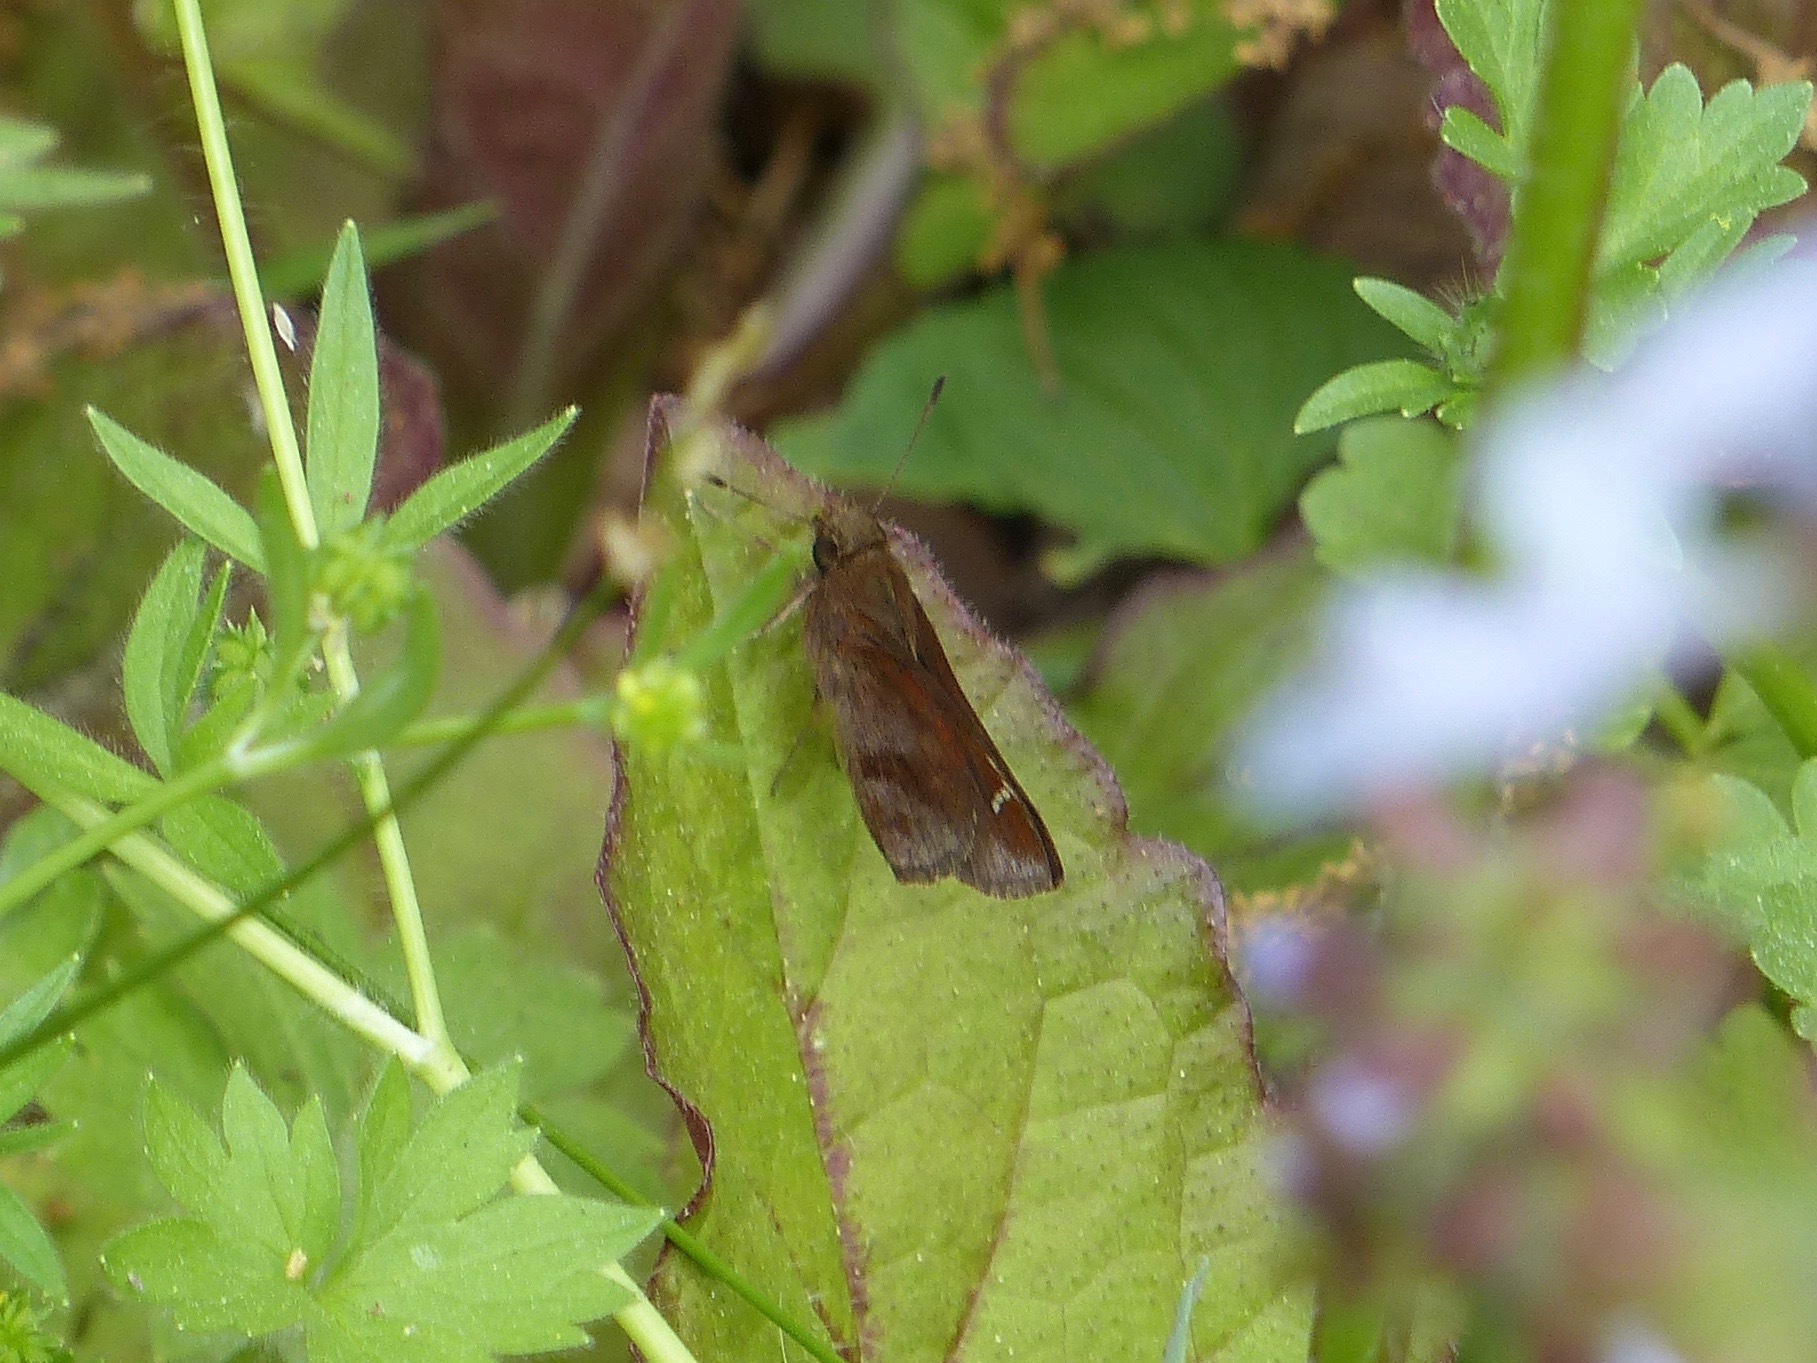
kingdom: Animalia
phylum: Arthropoda
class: Insecta
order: Lepidoptera
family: Hesperiidae
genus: Lerema
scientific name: Lerema accius
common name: Clouded skipper
